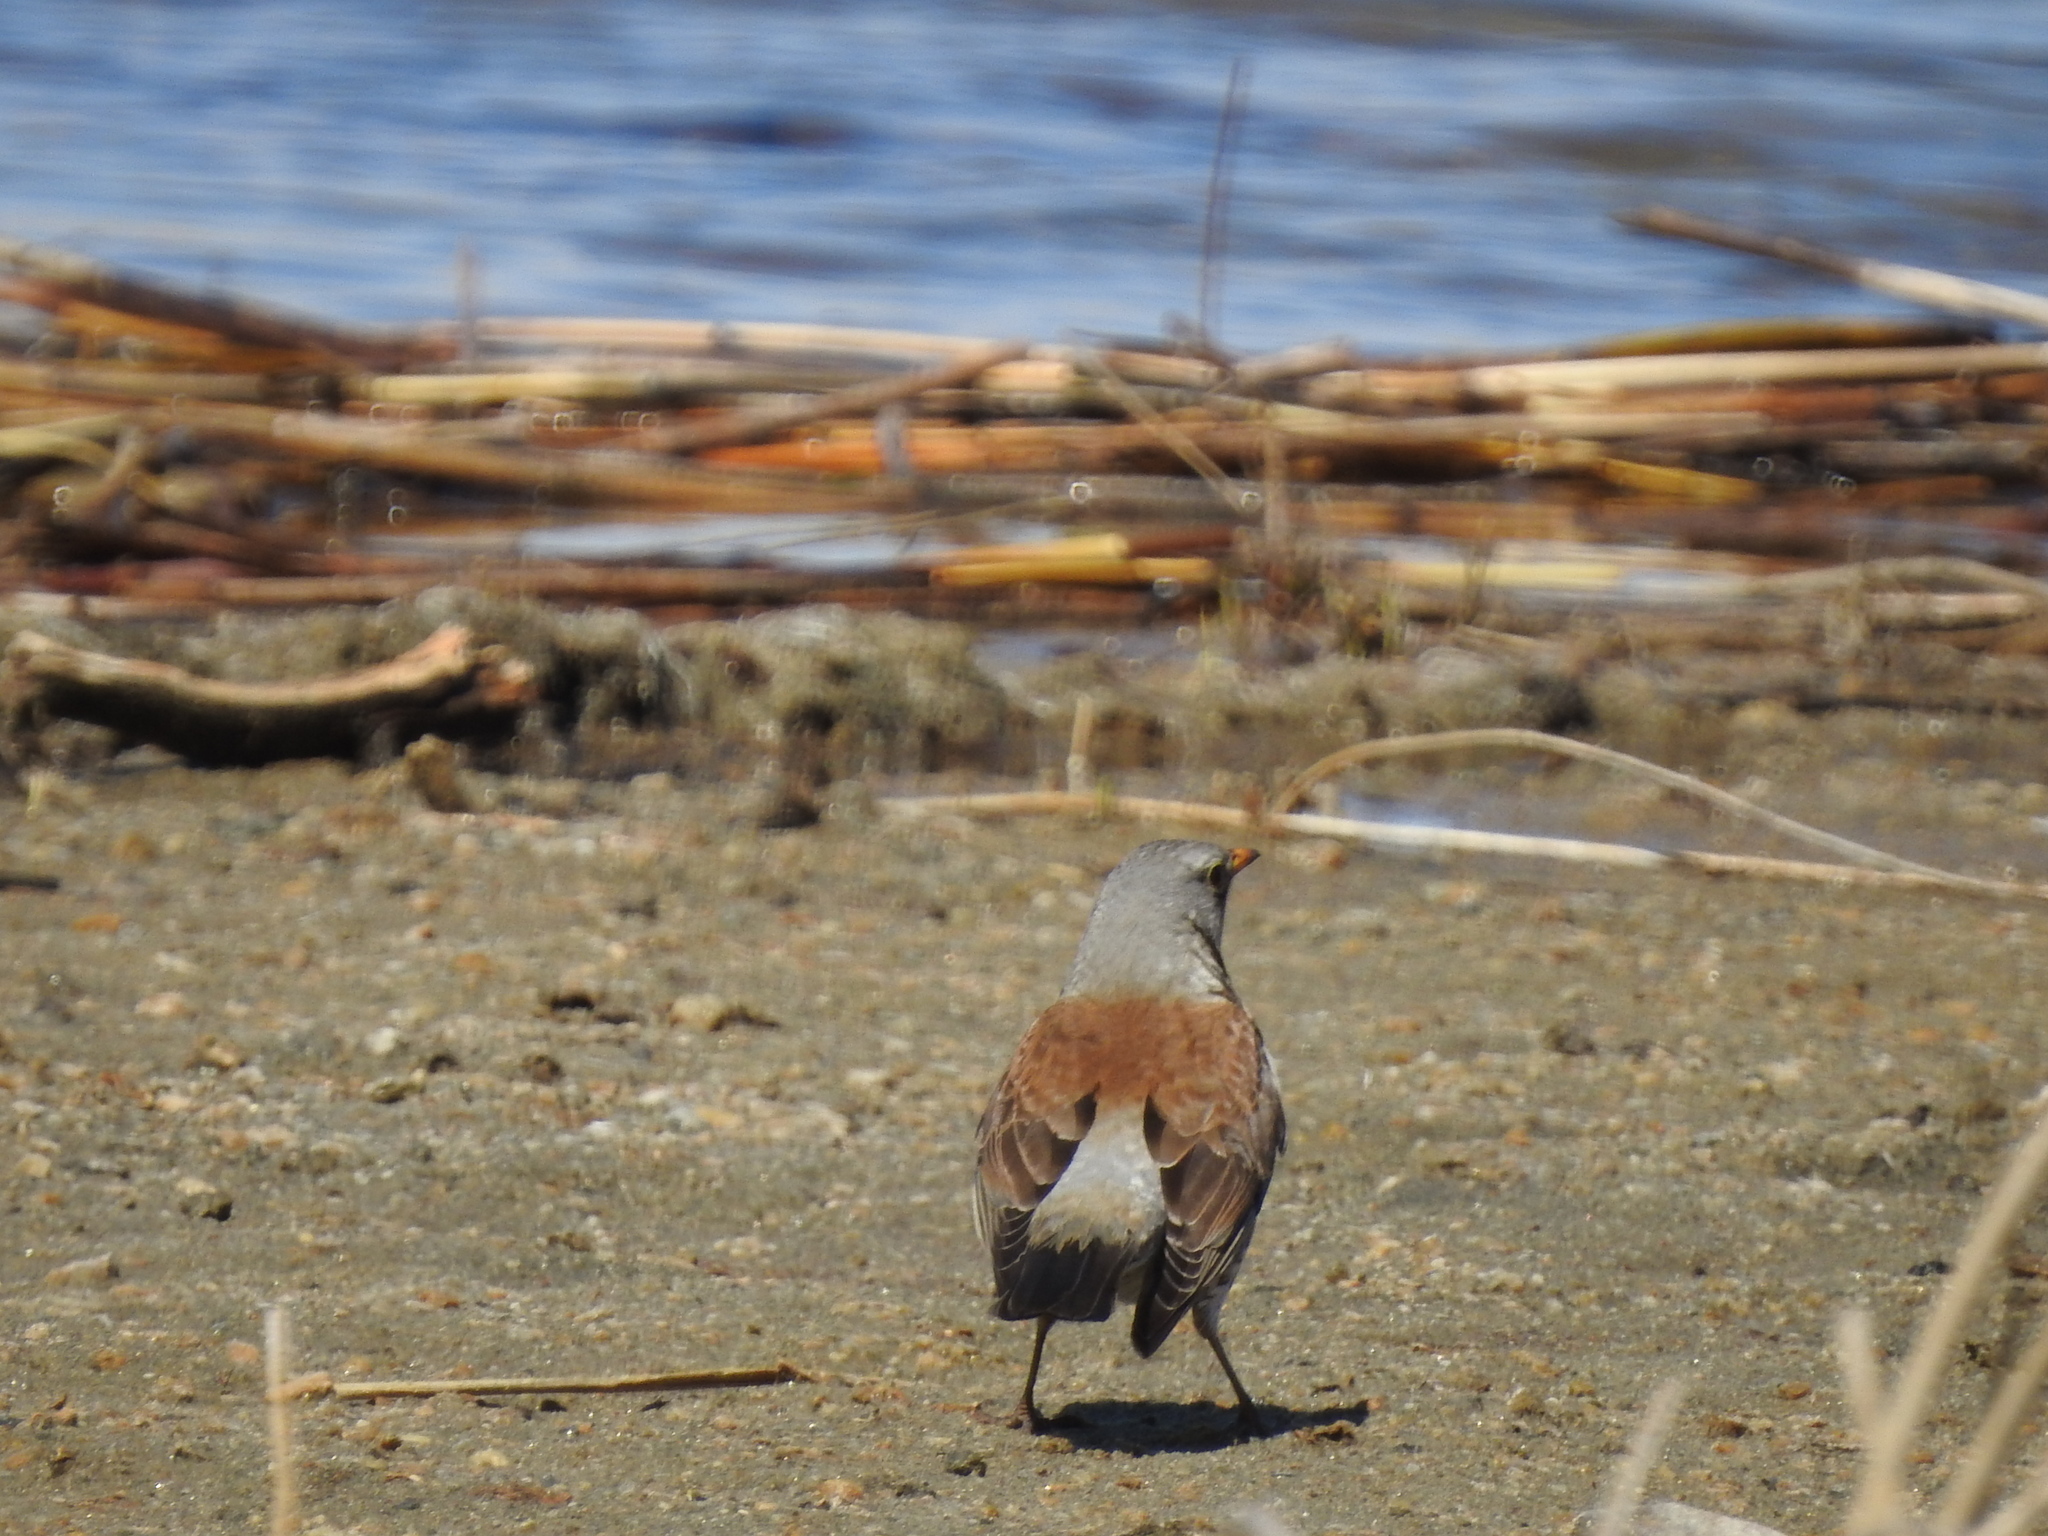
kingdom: Animalia
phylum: Chordata
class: Aves
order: Passeriformes
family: Turdidae
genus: Turdus
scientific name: Turdus pilaris
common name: Fieldfare
